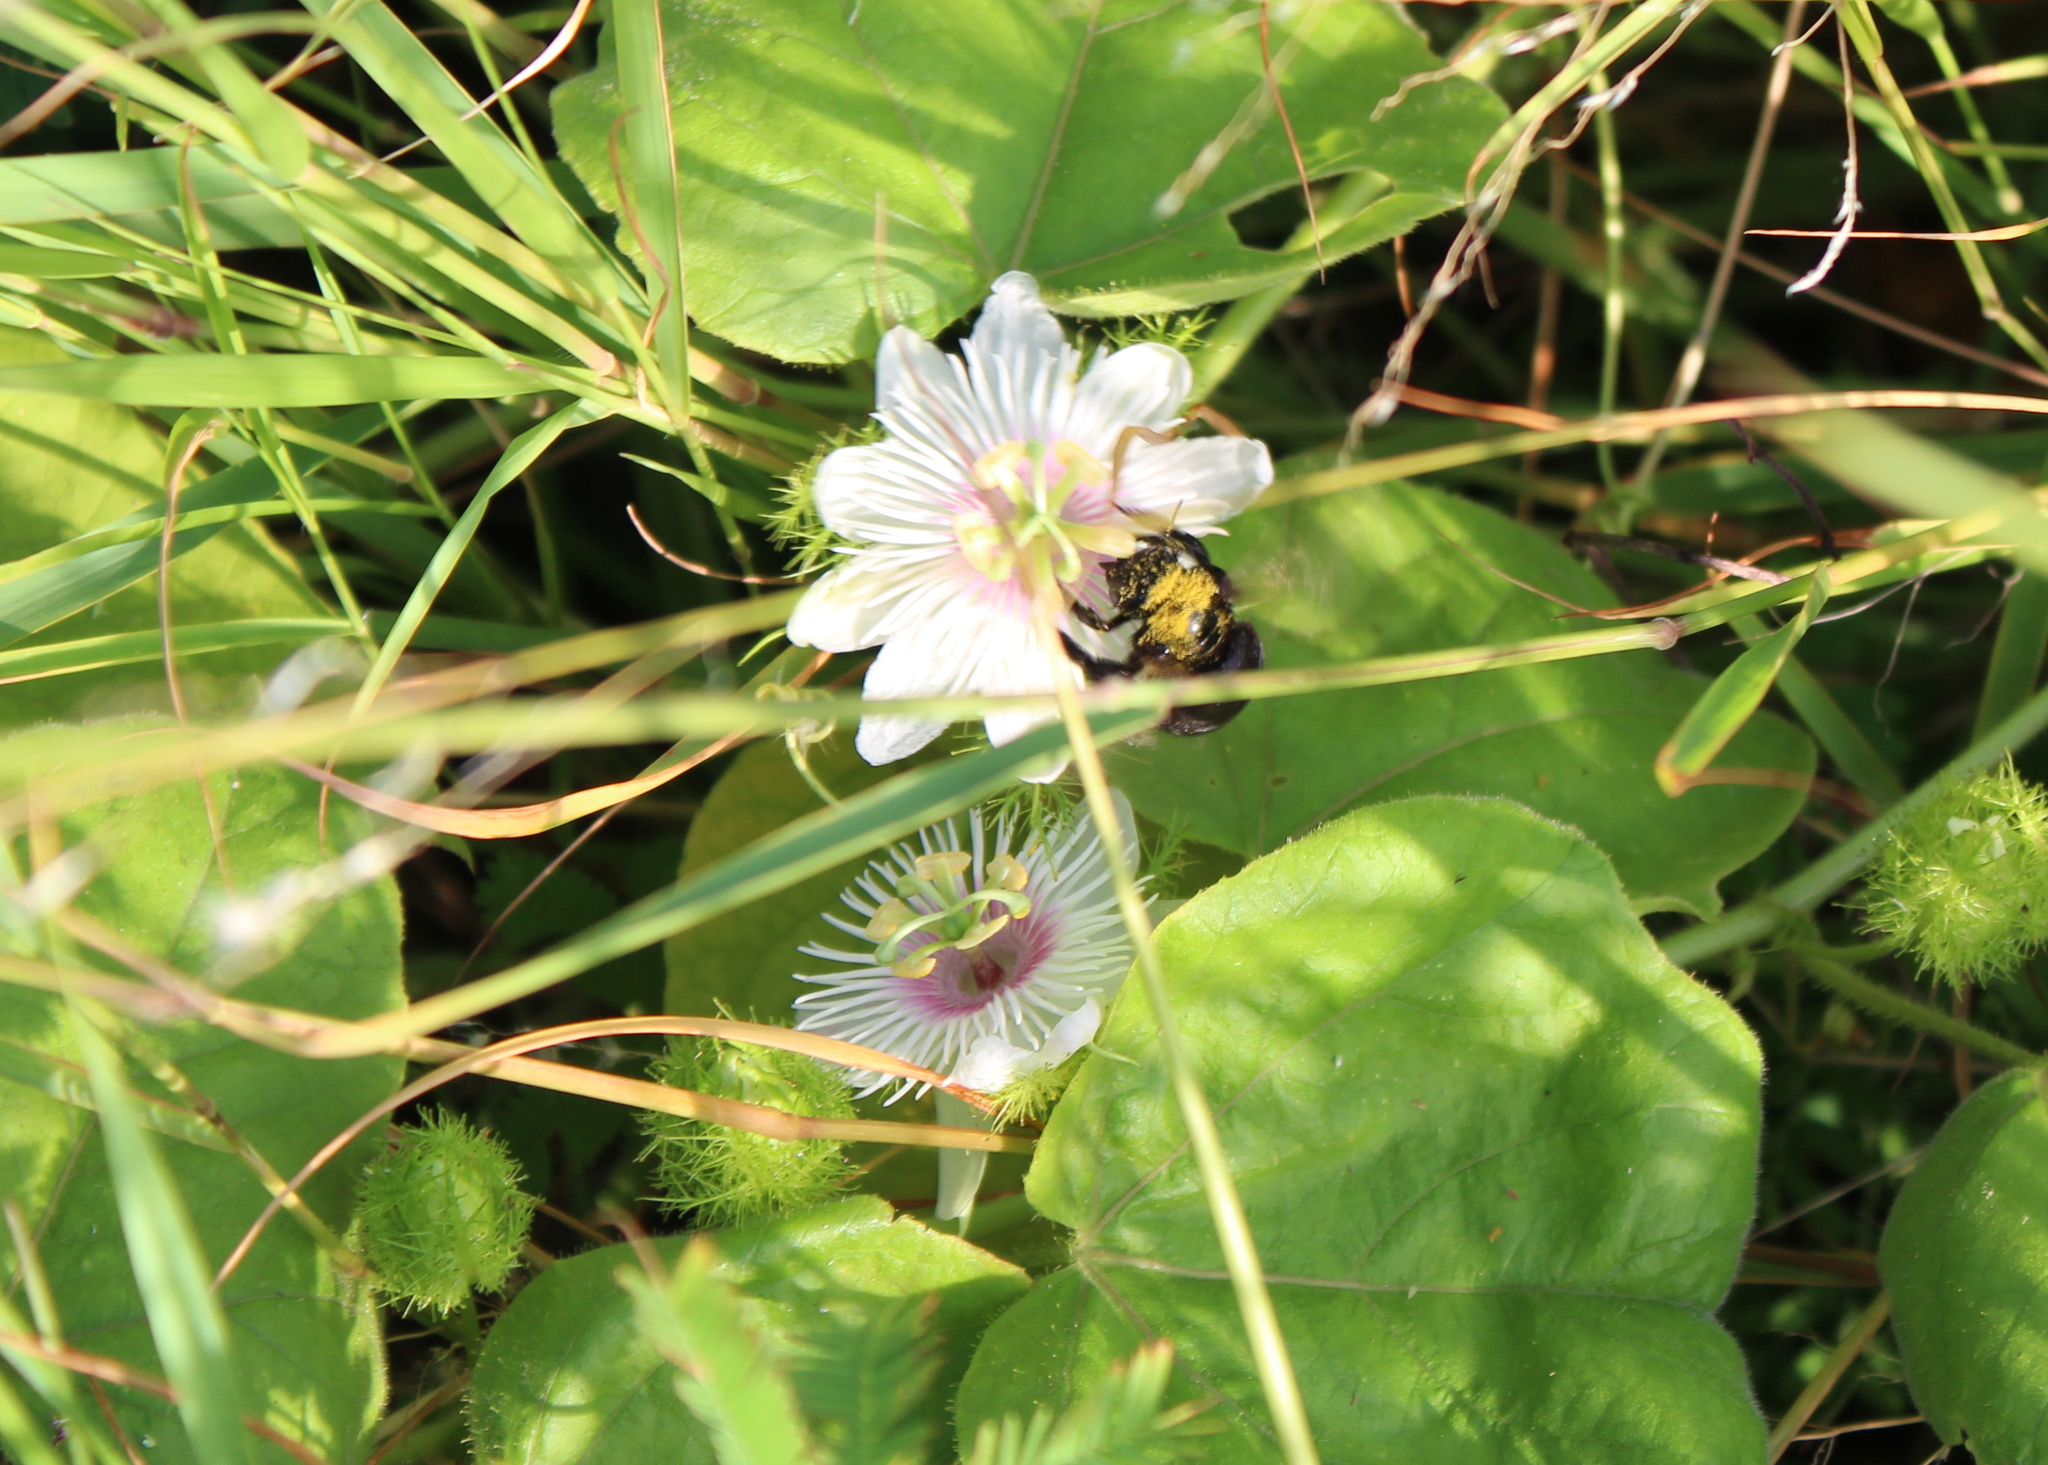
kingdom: Plantae
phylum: Tracheophyta
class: Magnoliopsida
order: Malpighiales
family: Passifloraceae
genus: Passiflora
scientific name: Passiflora vesicaria
